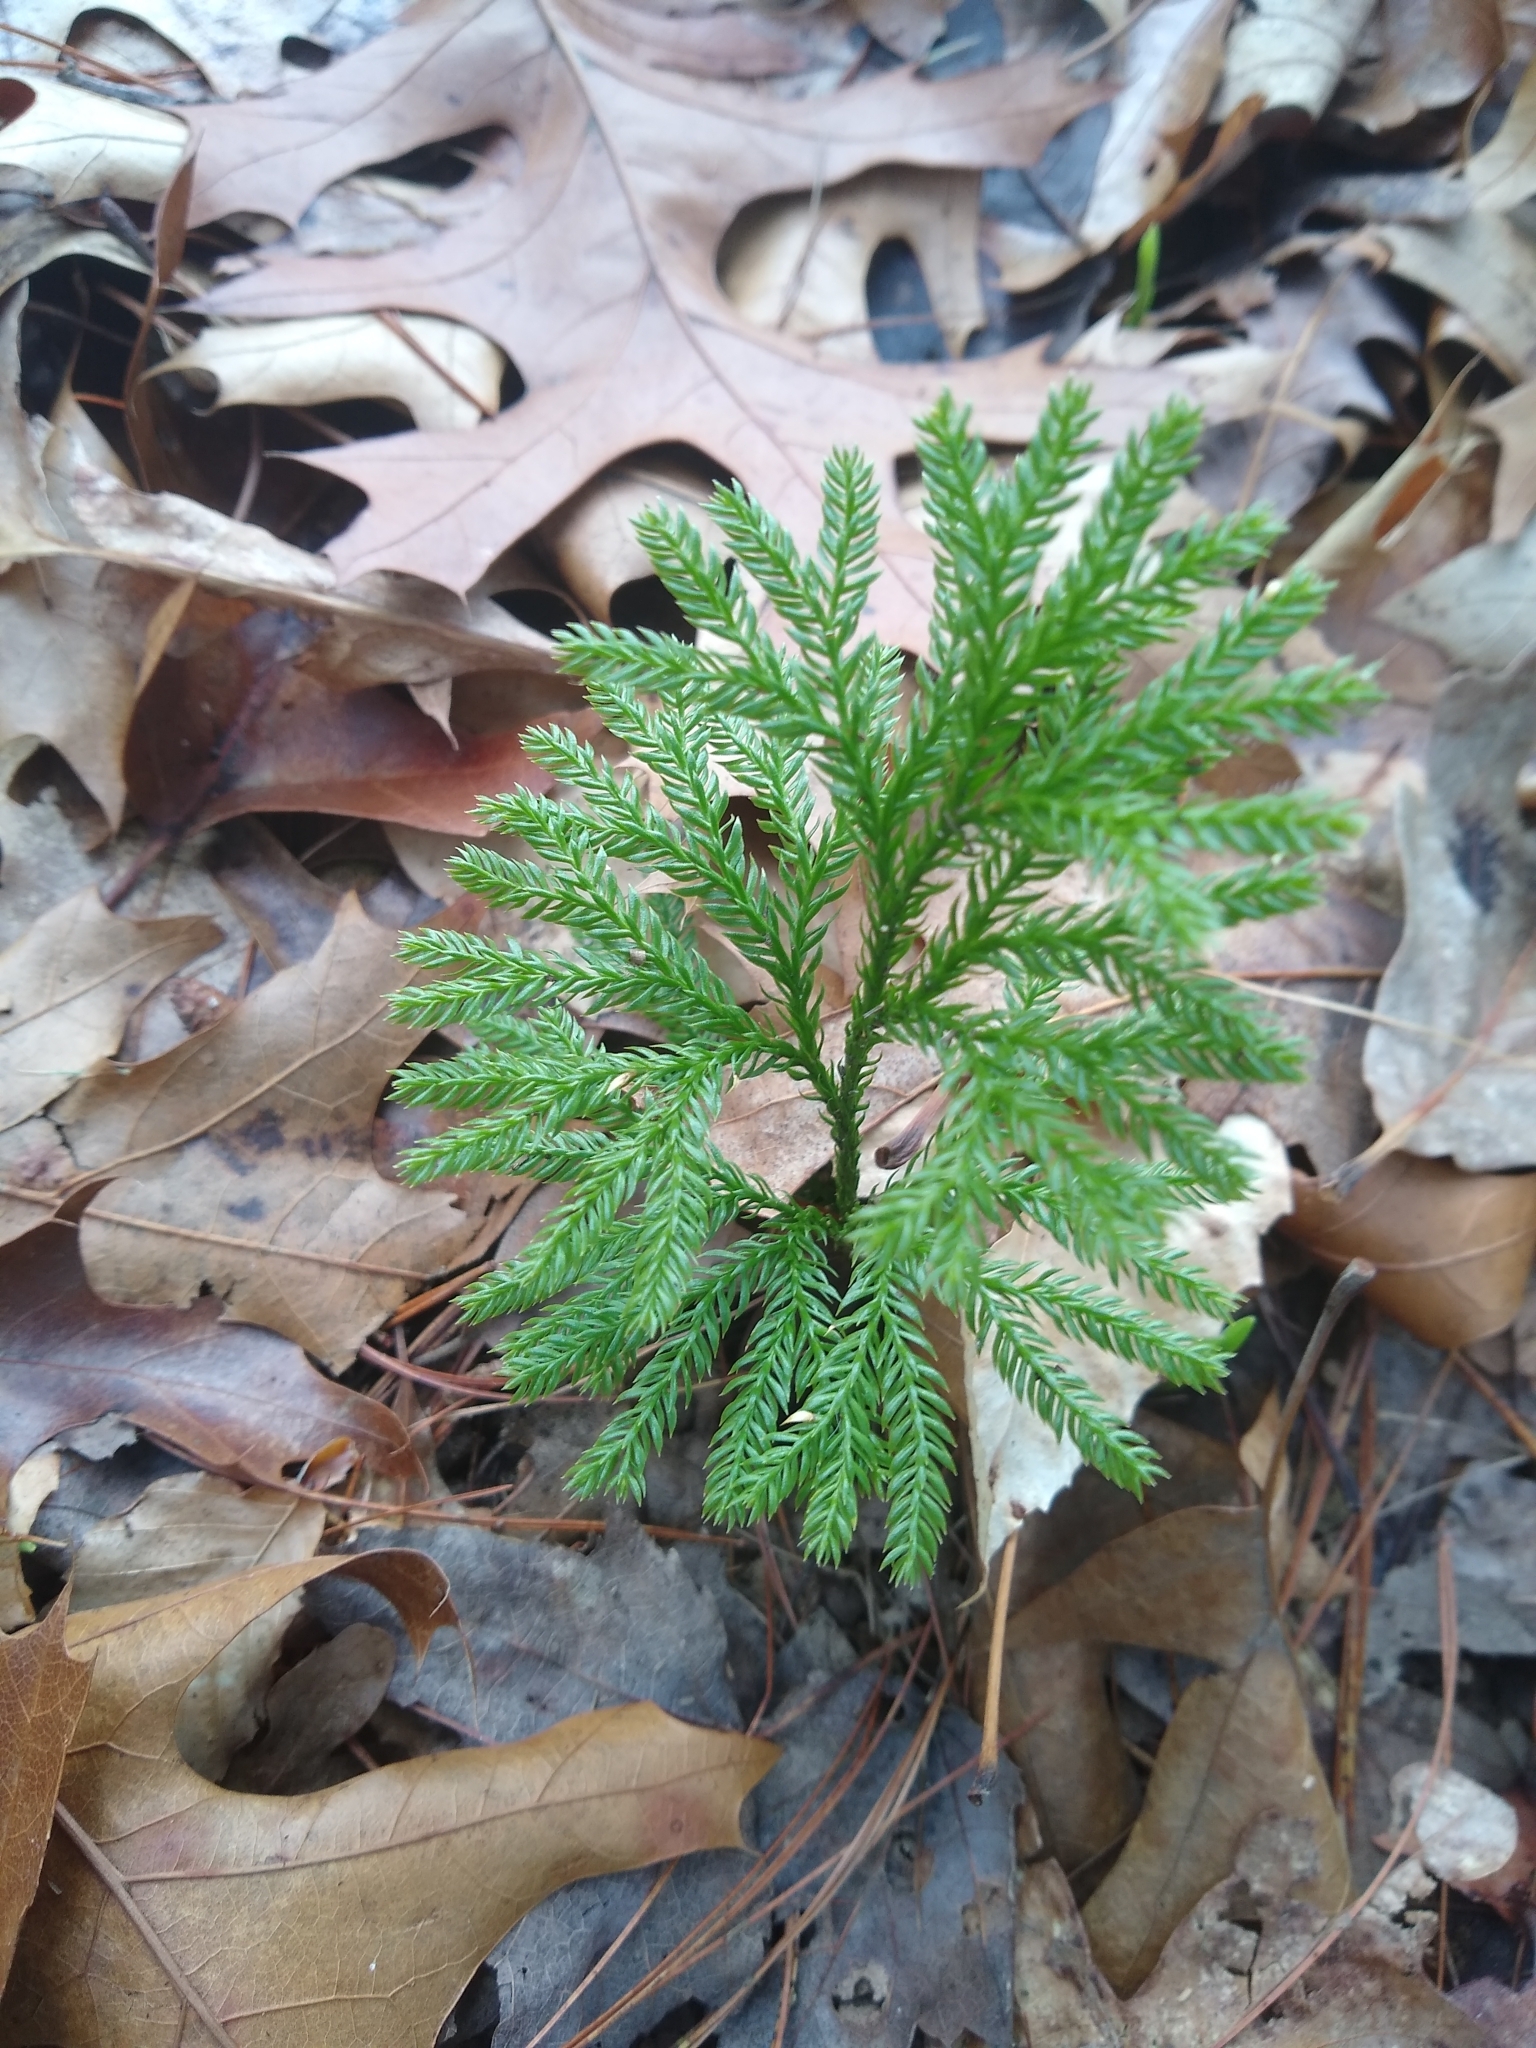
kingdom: Plantae
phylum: Tracheophyta
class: Lycopodiopsida
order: Lycopodiales
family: Lycopodiaceae
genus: Dendrolycopodium
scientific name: Dendrolycopodium obscurum
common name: Common ground-pine
